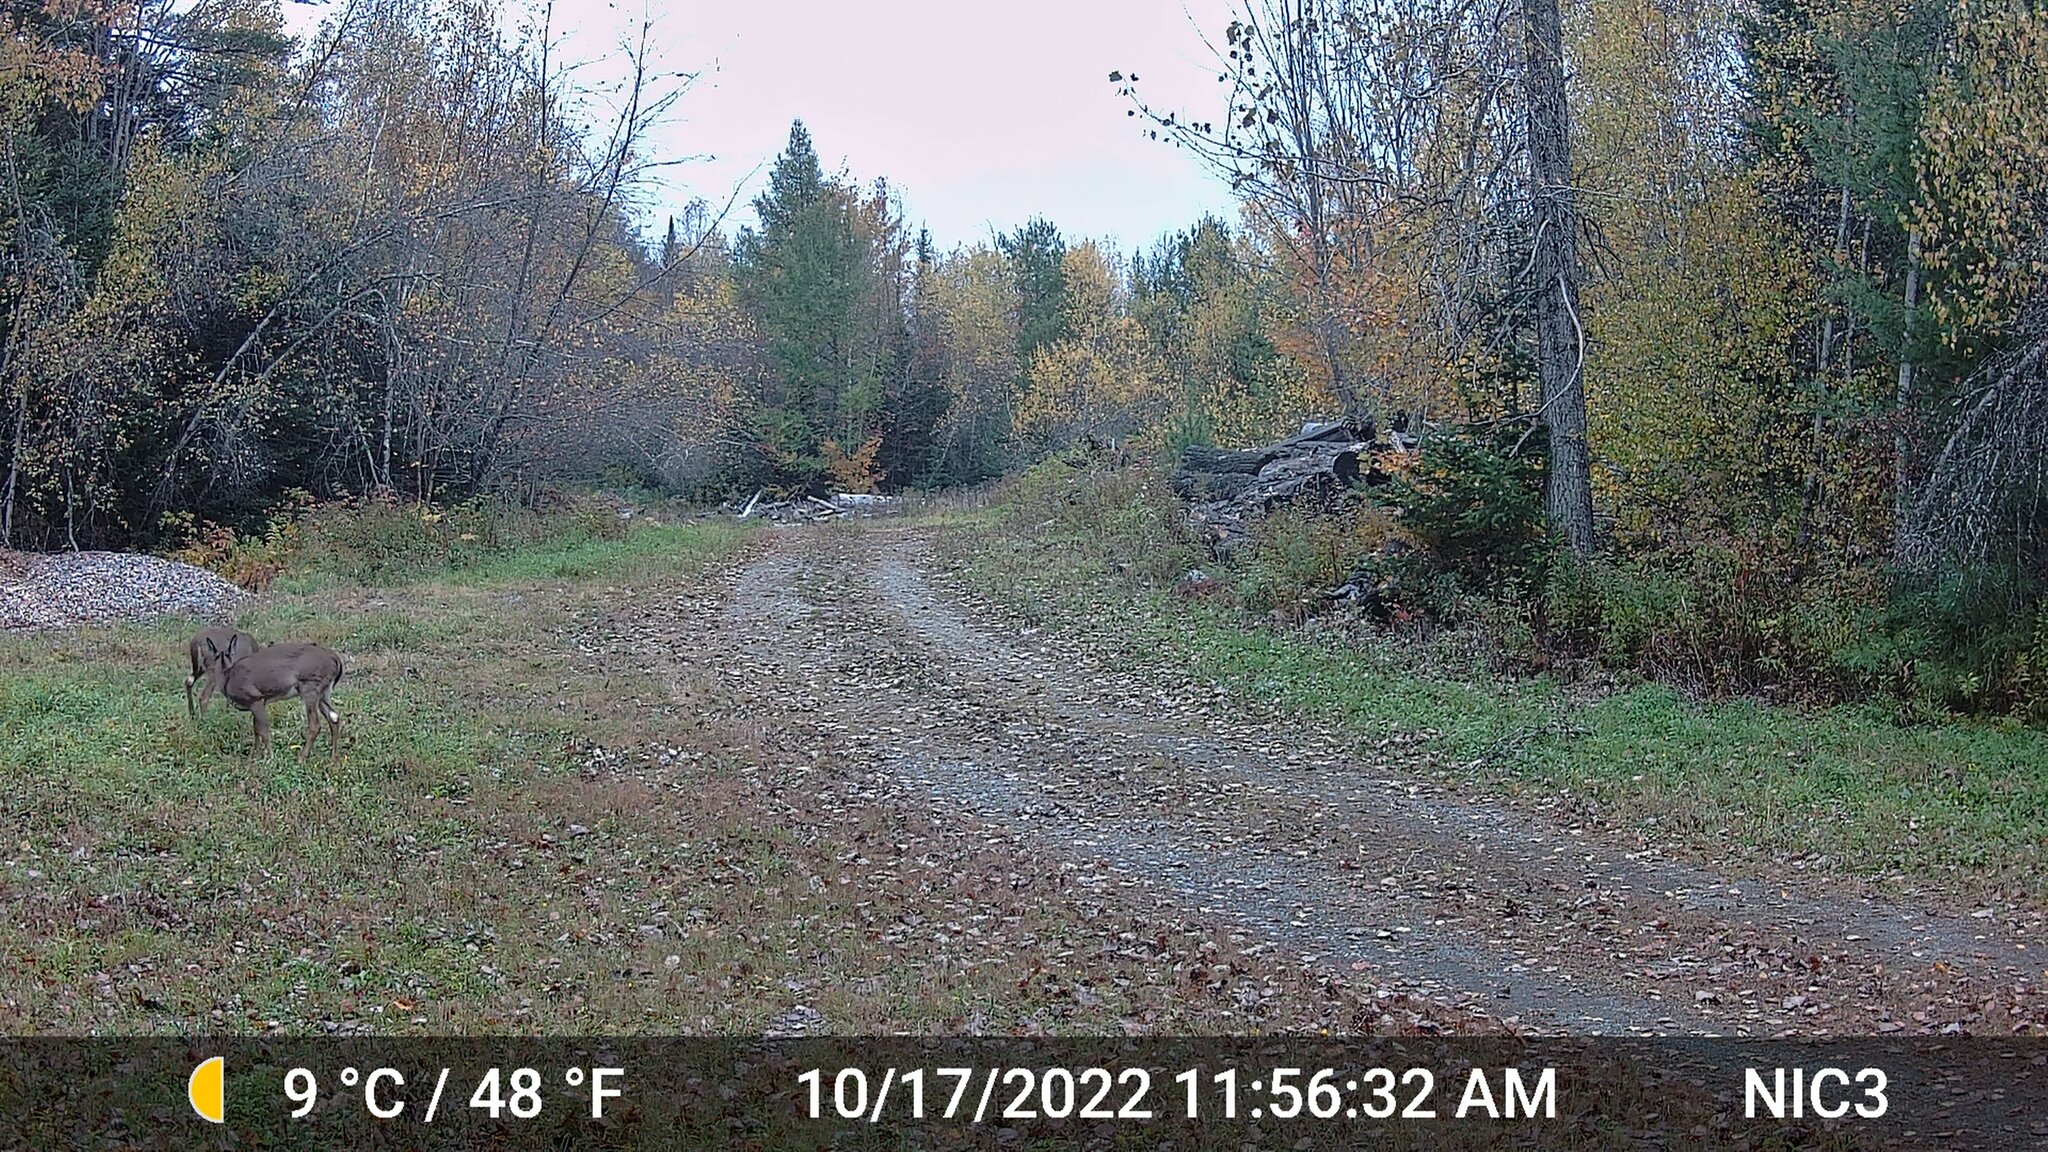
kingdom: Animalia
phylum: Chordata
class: Mammalia
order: Artiodactyla
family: Cervidae
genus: Odocoileus
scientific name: Odocoileus virginianus
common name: White-tailed deer
